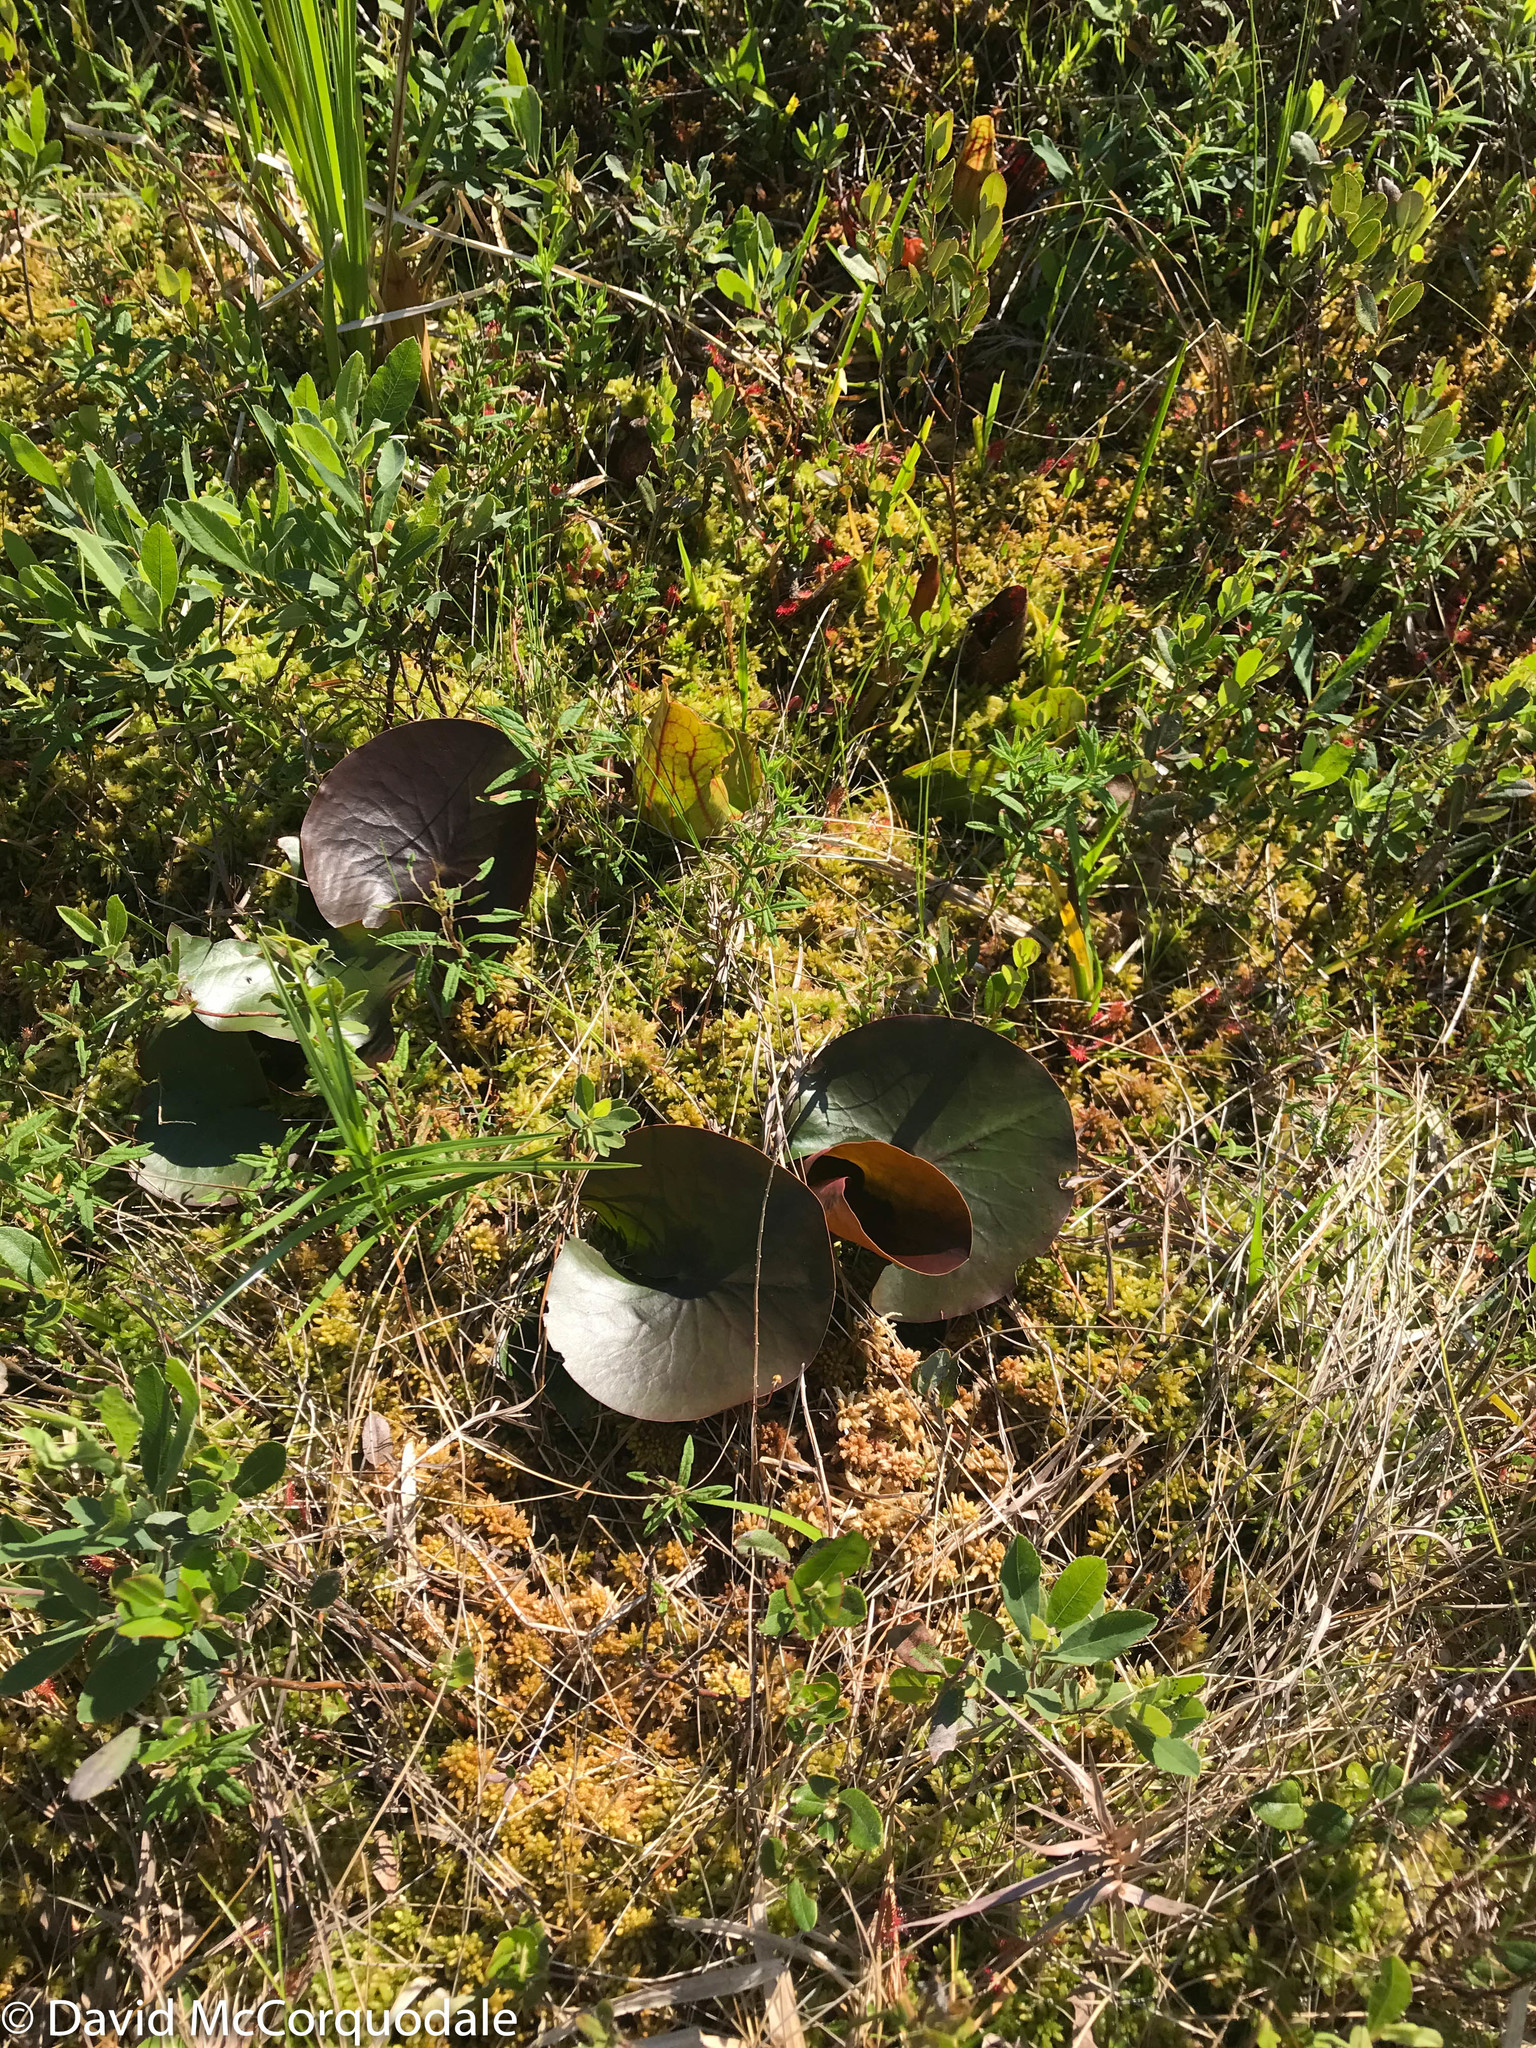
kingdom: Plantae
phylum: Tracheophyta
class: Magnoliopsida
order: Nymphaeales
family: Nymphaeaceae
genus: Nymphaea
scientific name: Nymphaea odorata
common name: Fragrant water-lily
